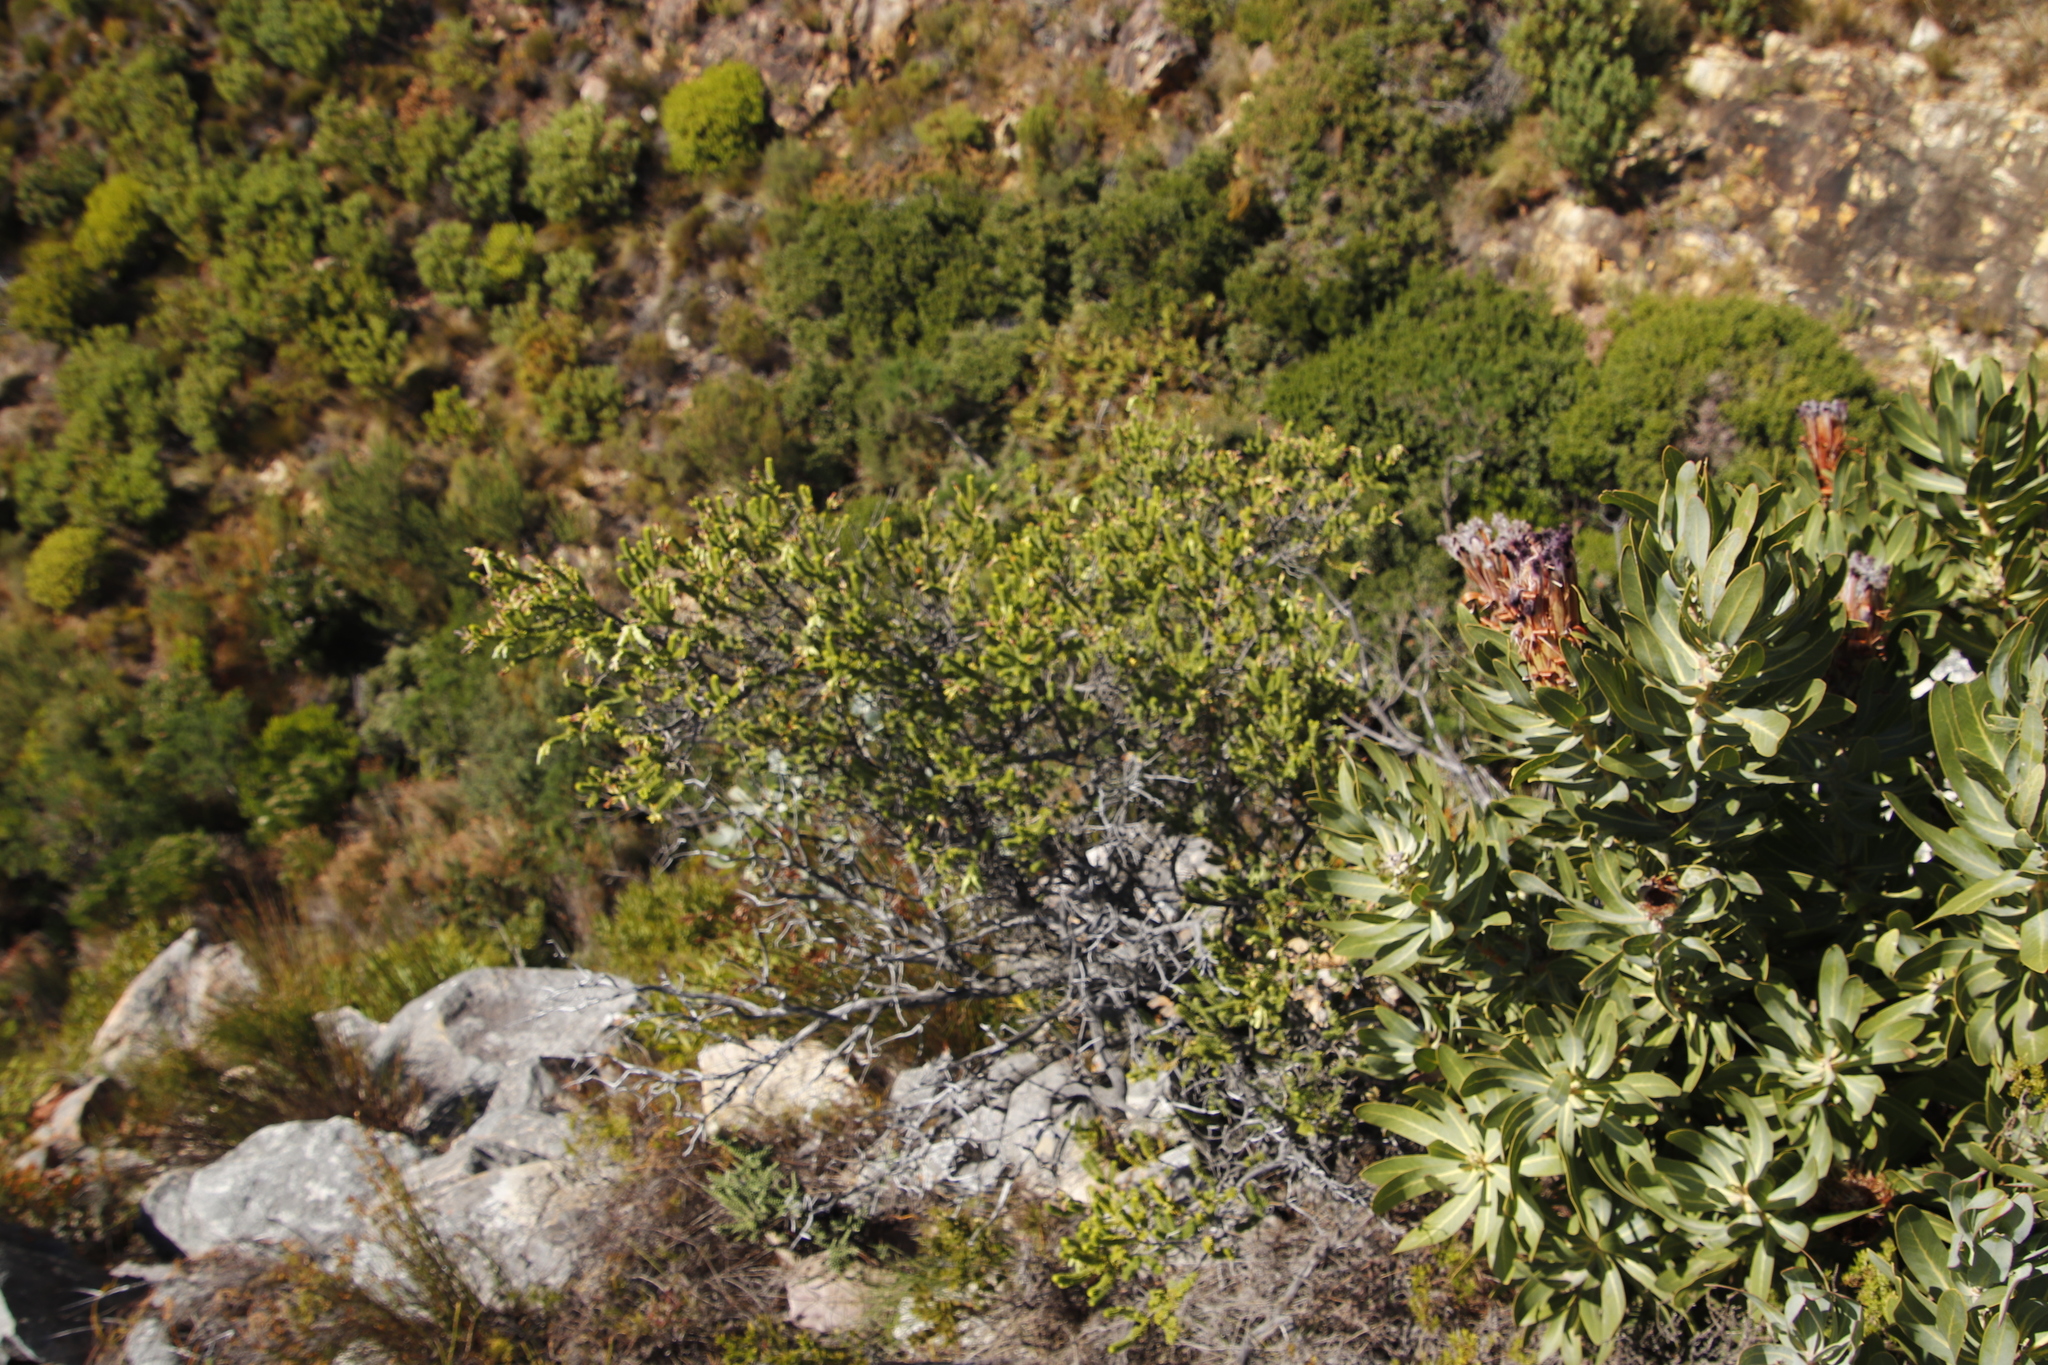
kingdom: Plantae
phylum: Tracheophyta
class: Magnoliopsida
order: Ericales
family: Ericaceae
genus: Erica
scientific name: Erica brachialis
